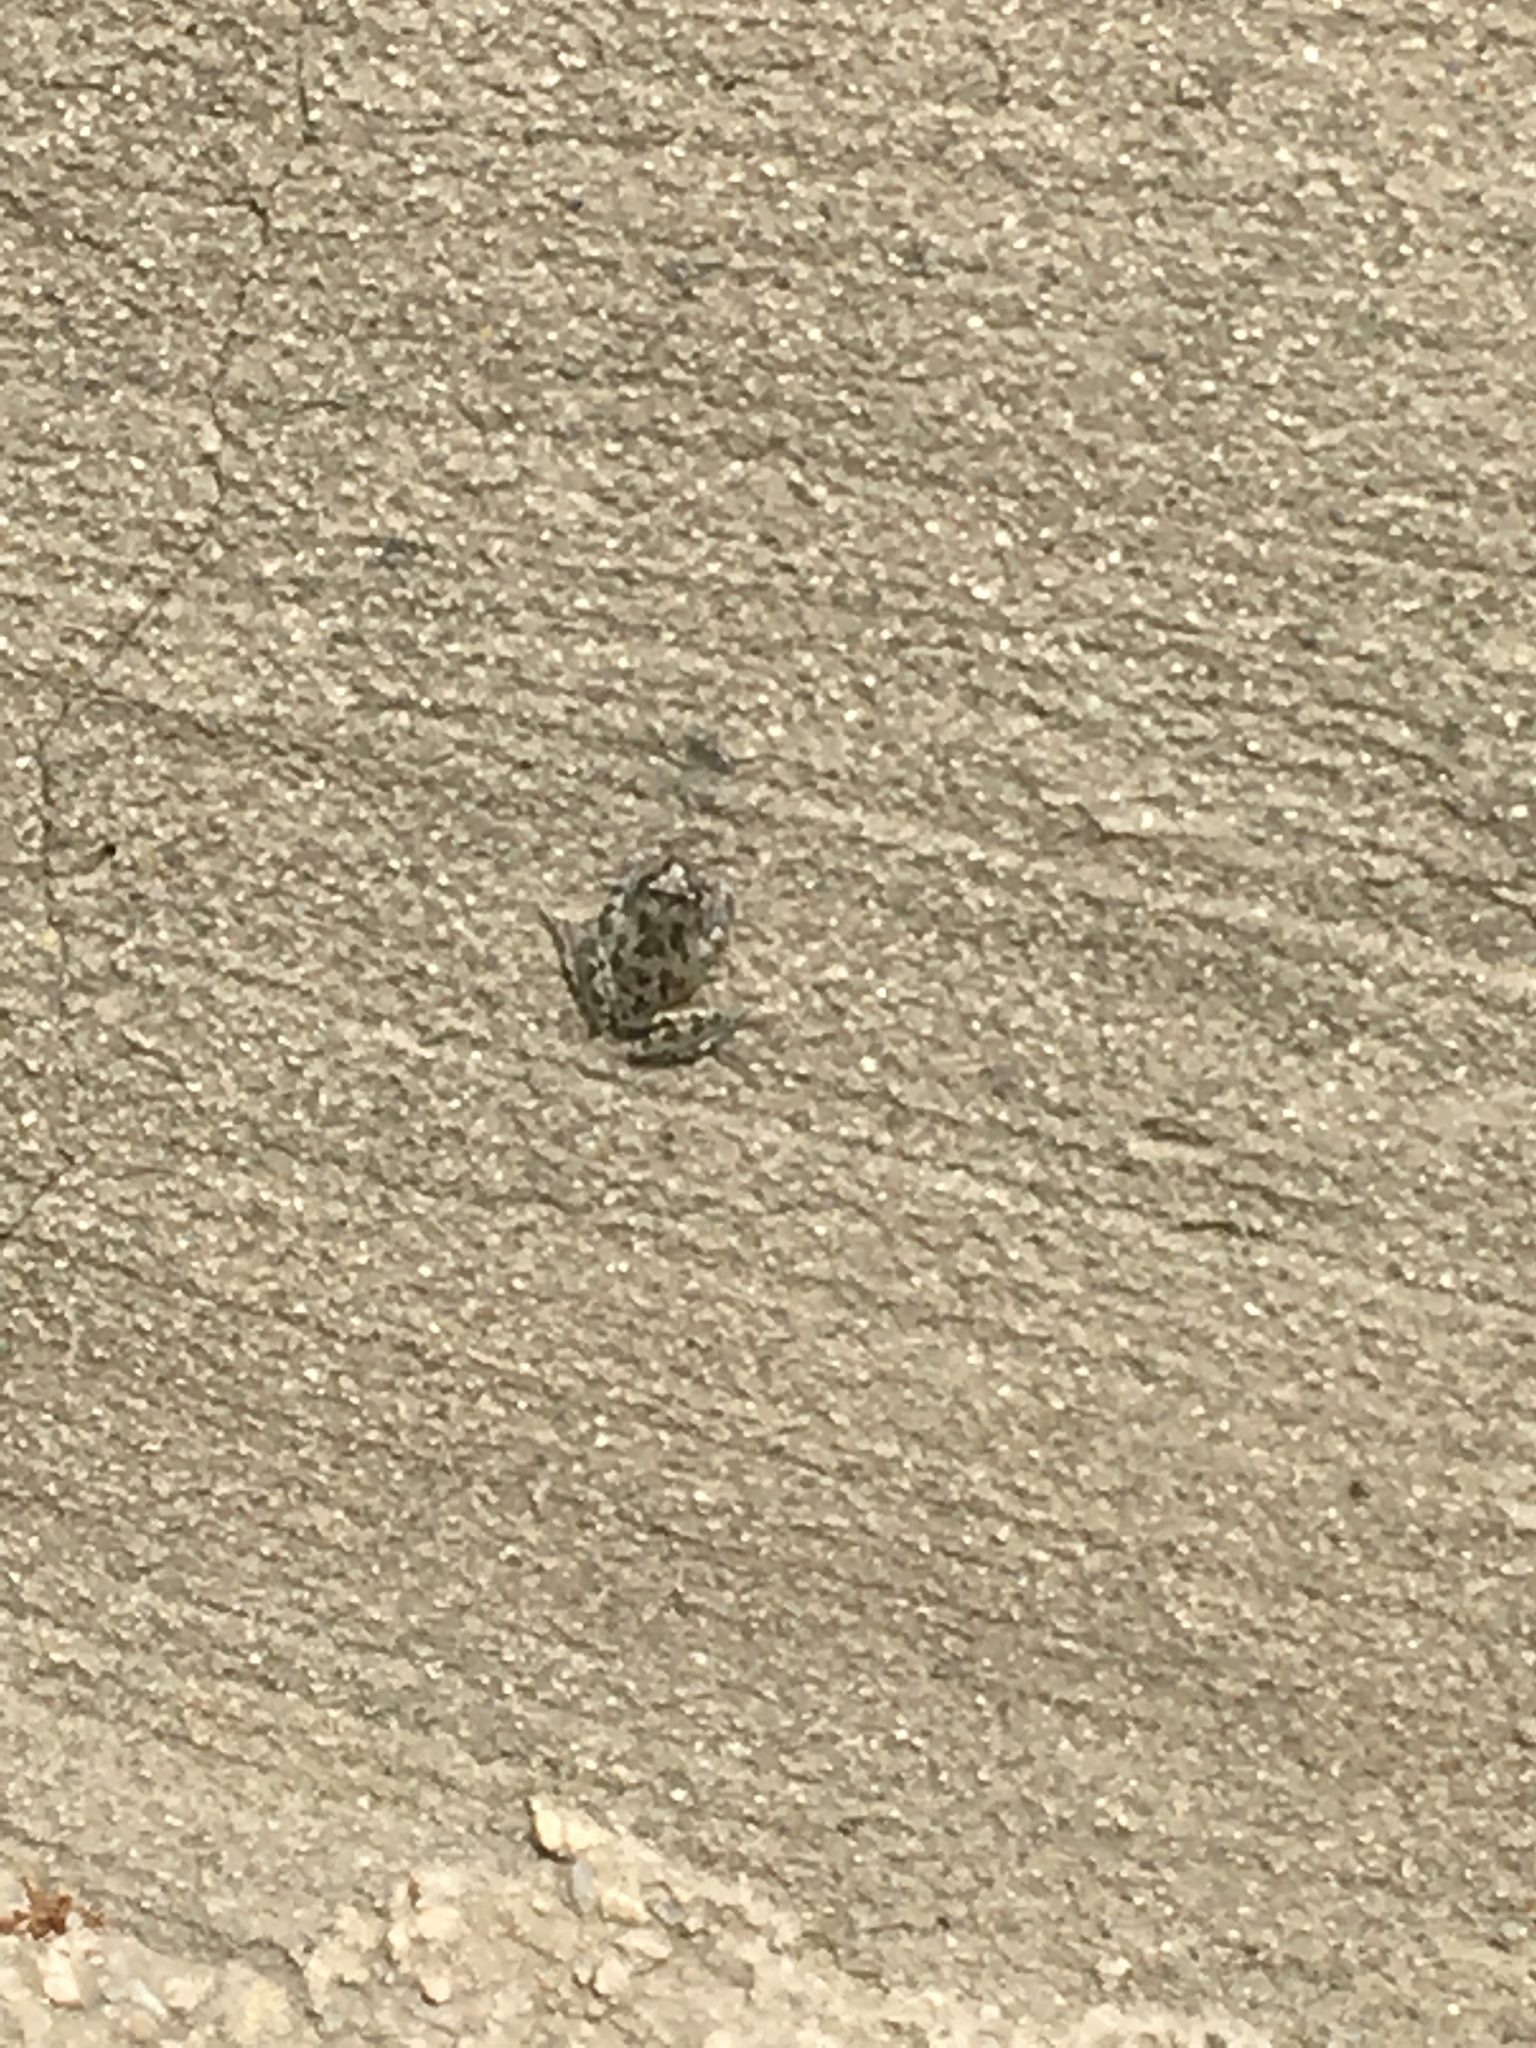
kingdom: Animalia
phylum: Chordata
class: Amphibia
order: Anura
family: Hylidae
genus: Pseudacris
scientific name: Pseudacris cadaverina
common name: California chorus frog
